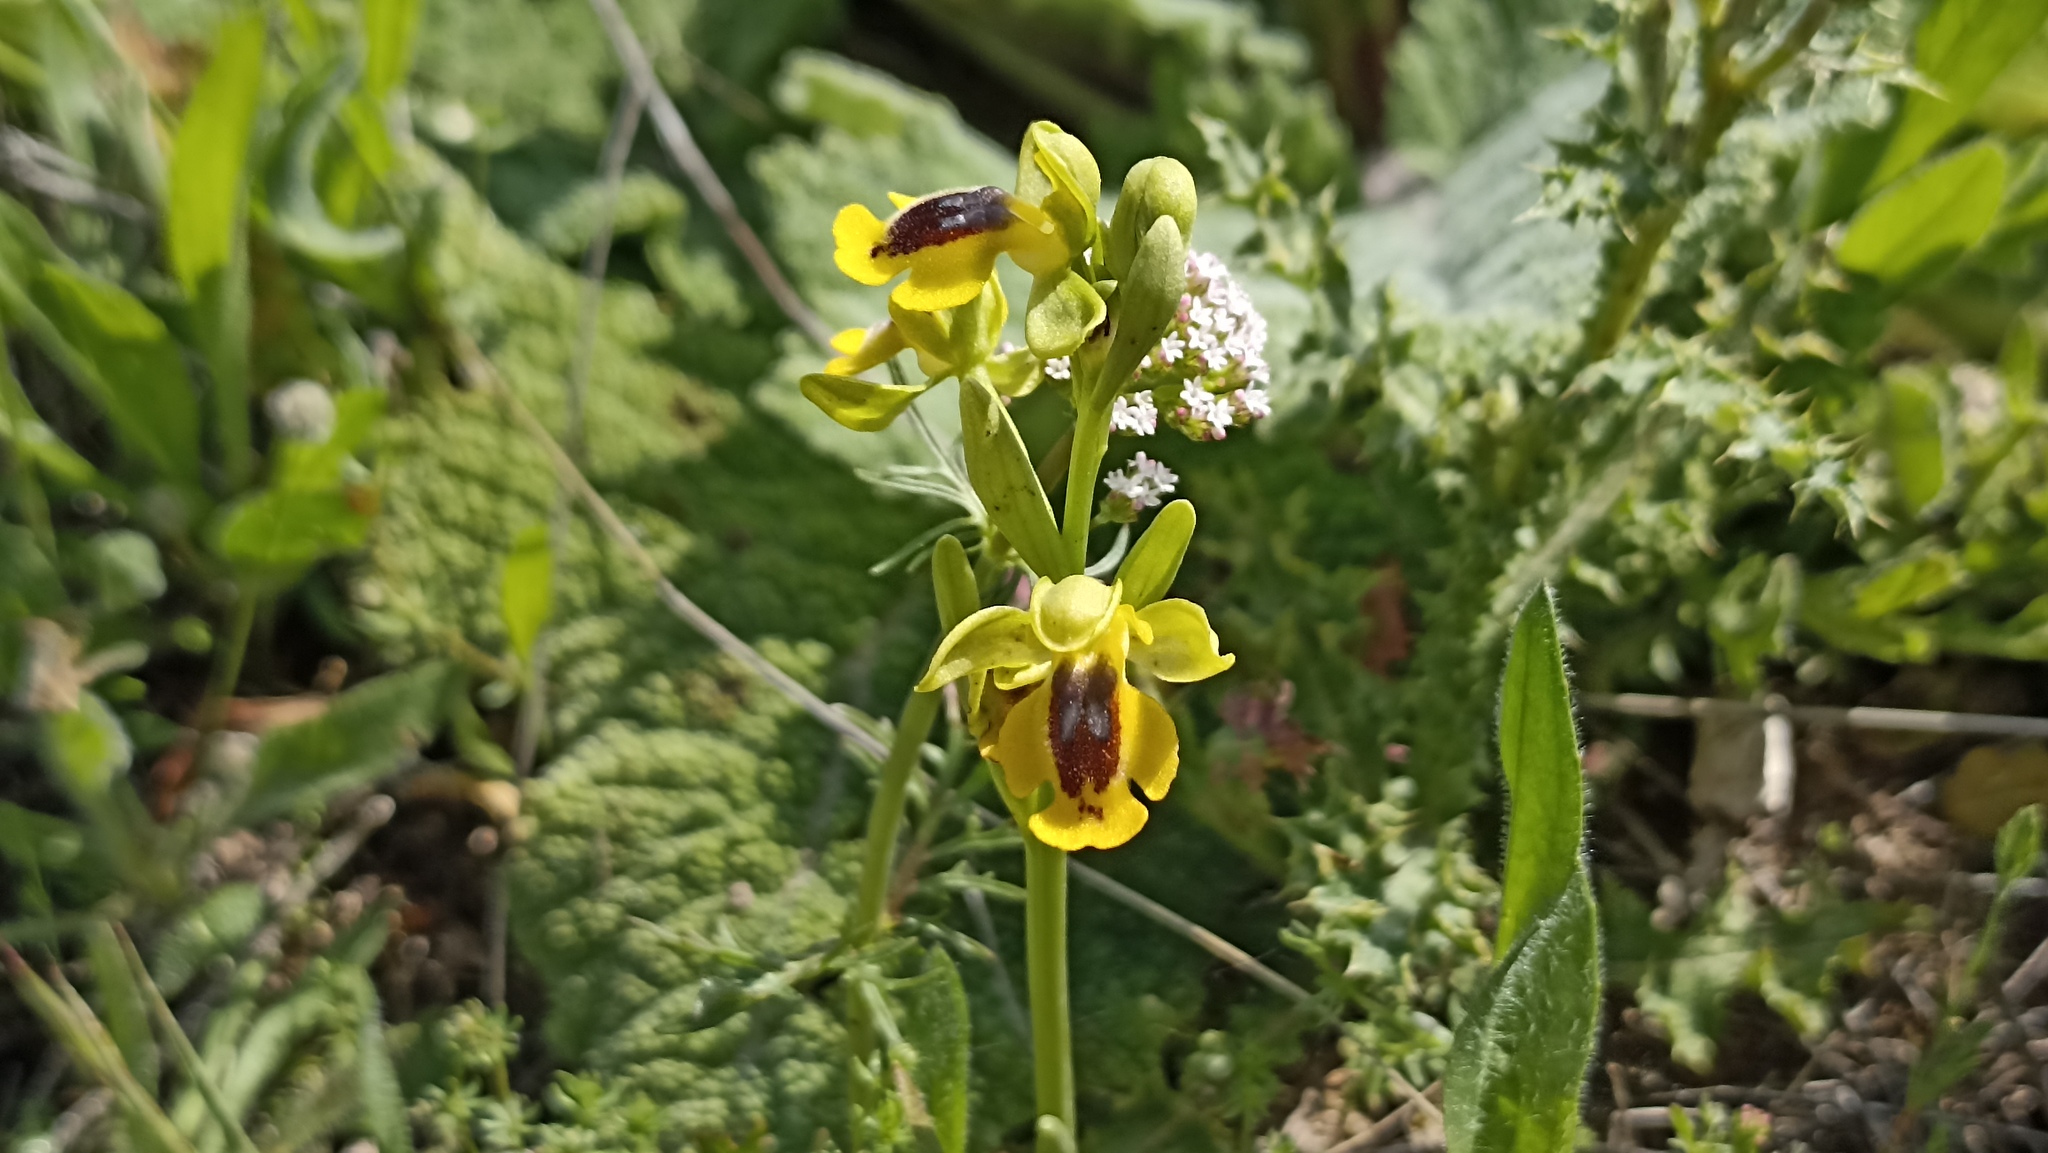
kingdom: Plantae
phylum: Tracheophyta
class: Liliopsida
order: Asparagales
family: Orchidaceae
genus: Ophrys
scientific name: Ophrys lutea
